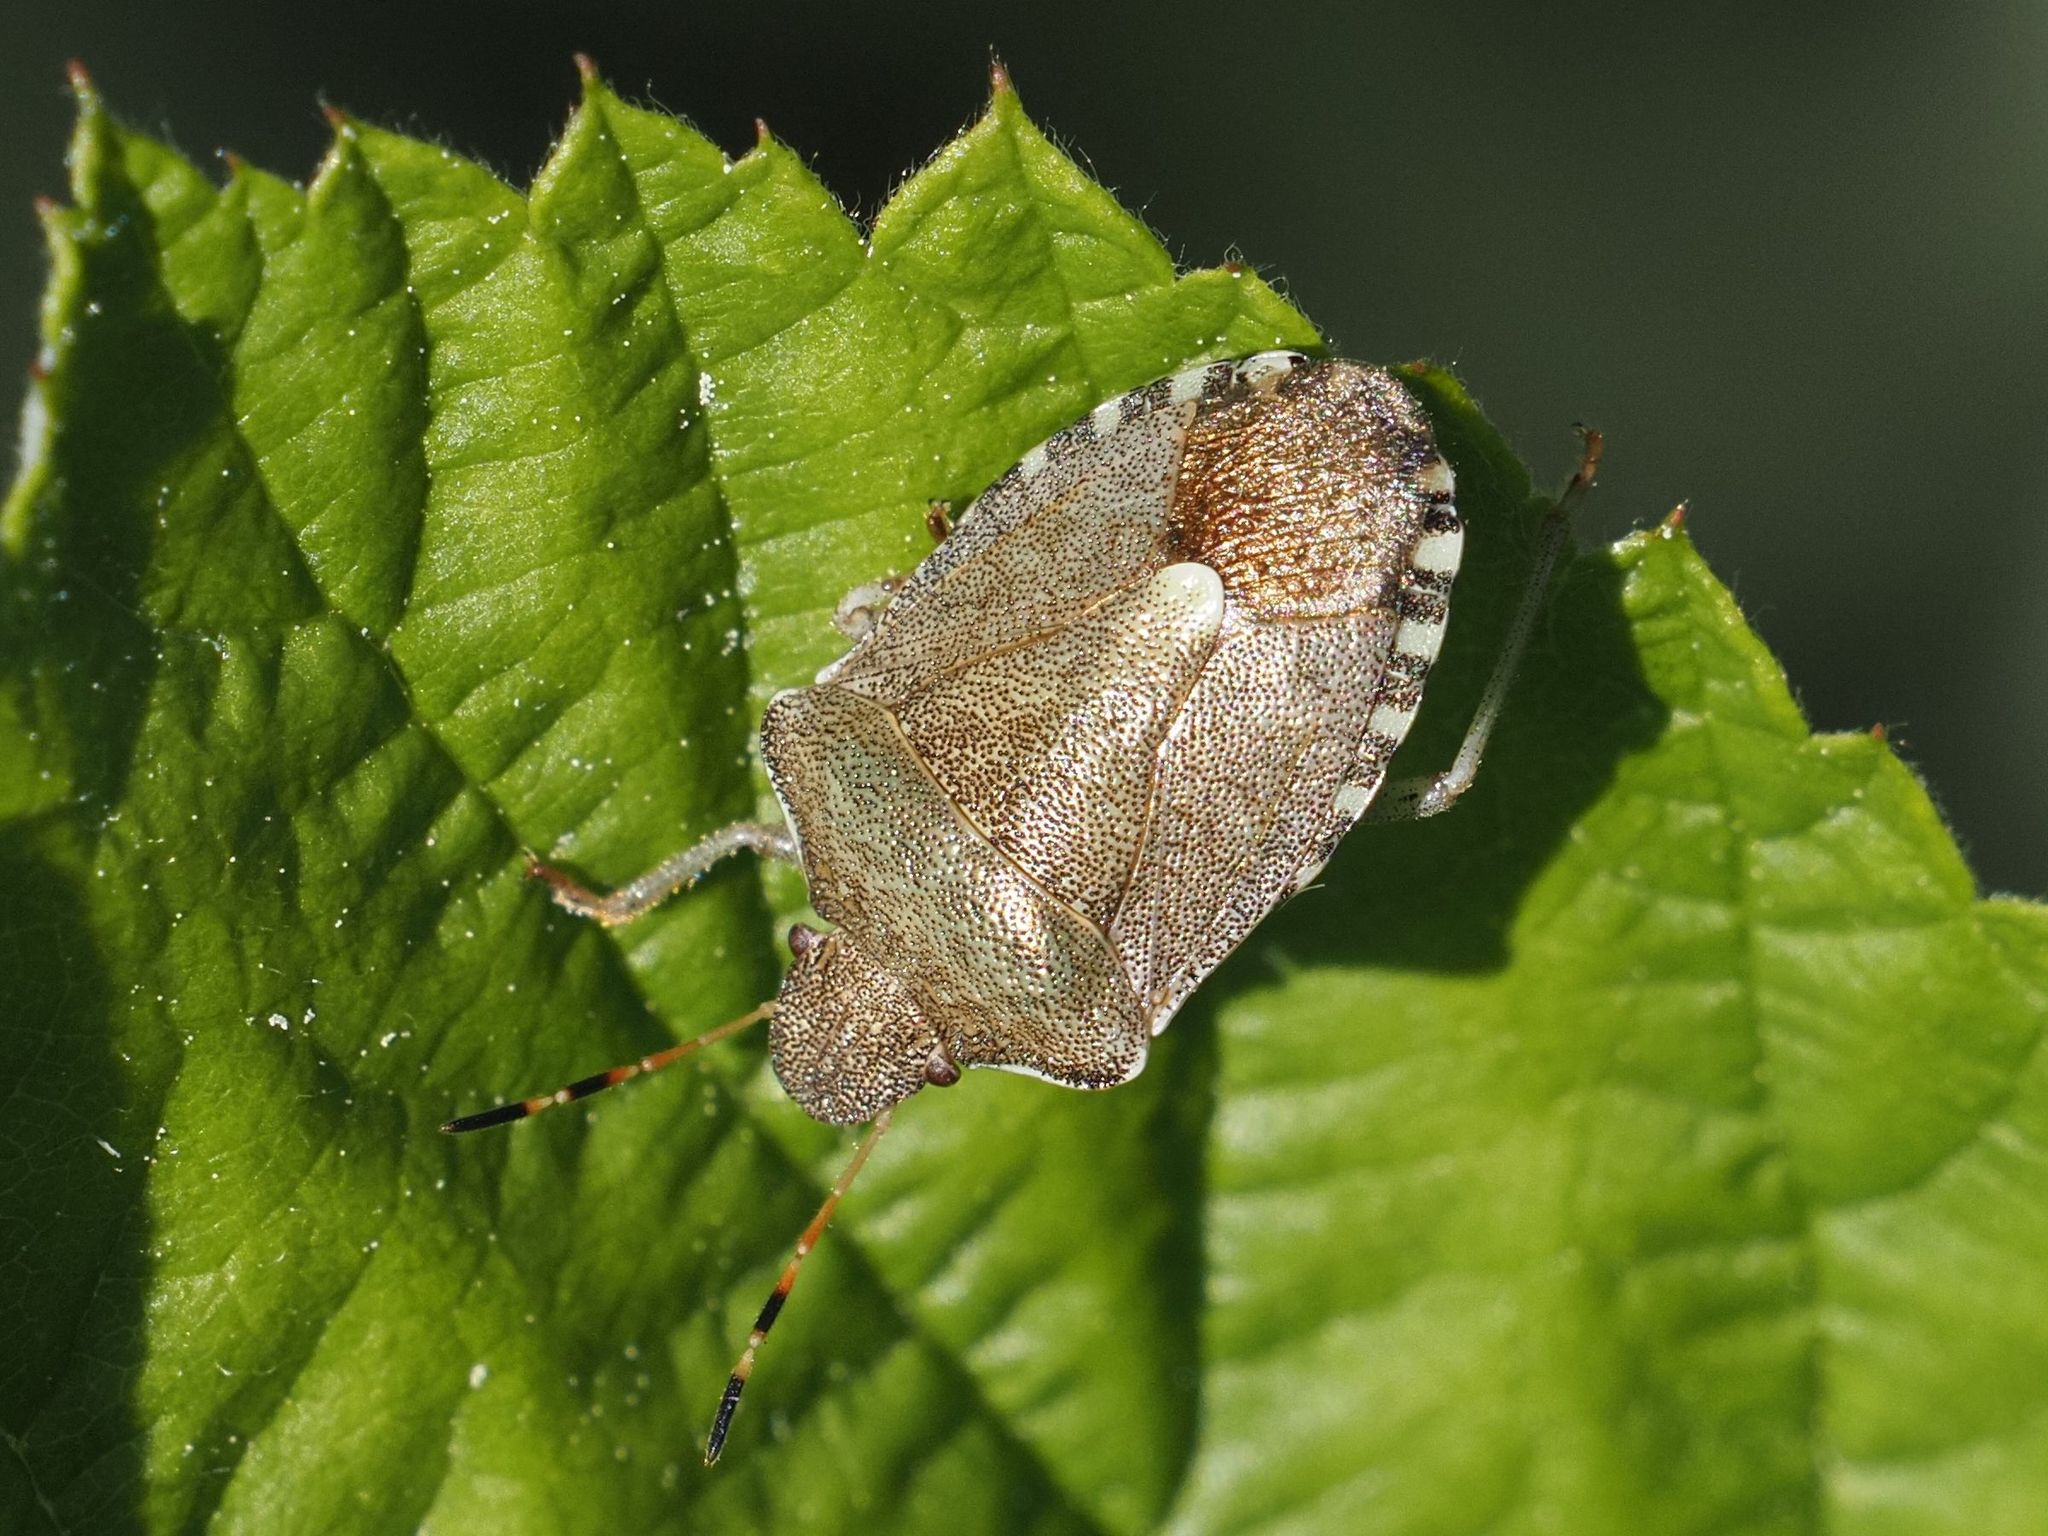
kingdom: Animalia
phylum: Arthropoda
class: Insecta
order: Hemiptera
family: Pentatomidae
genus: Holcostethus
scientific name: Holcostethus strictus
